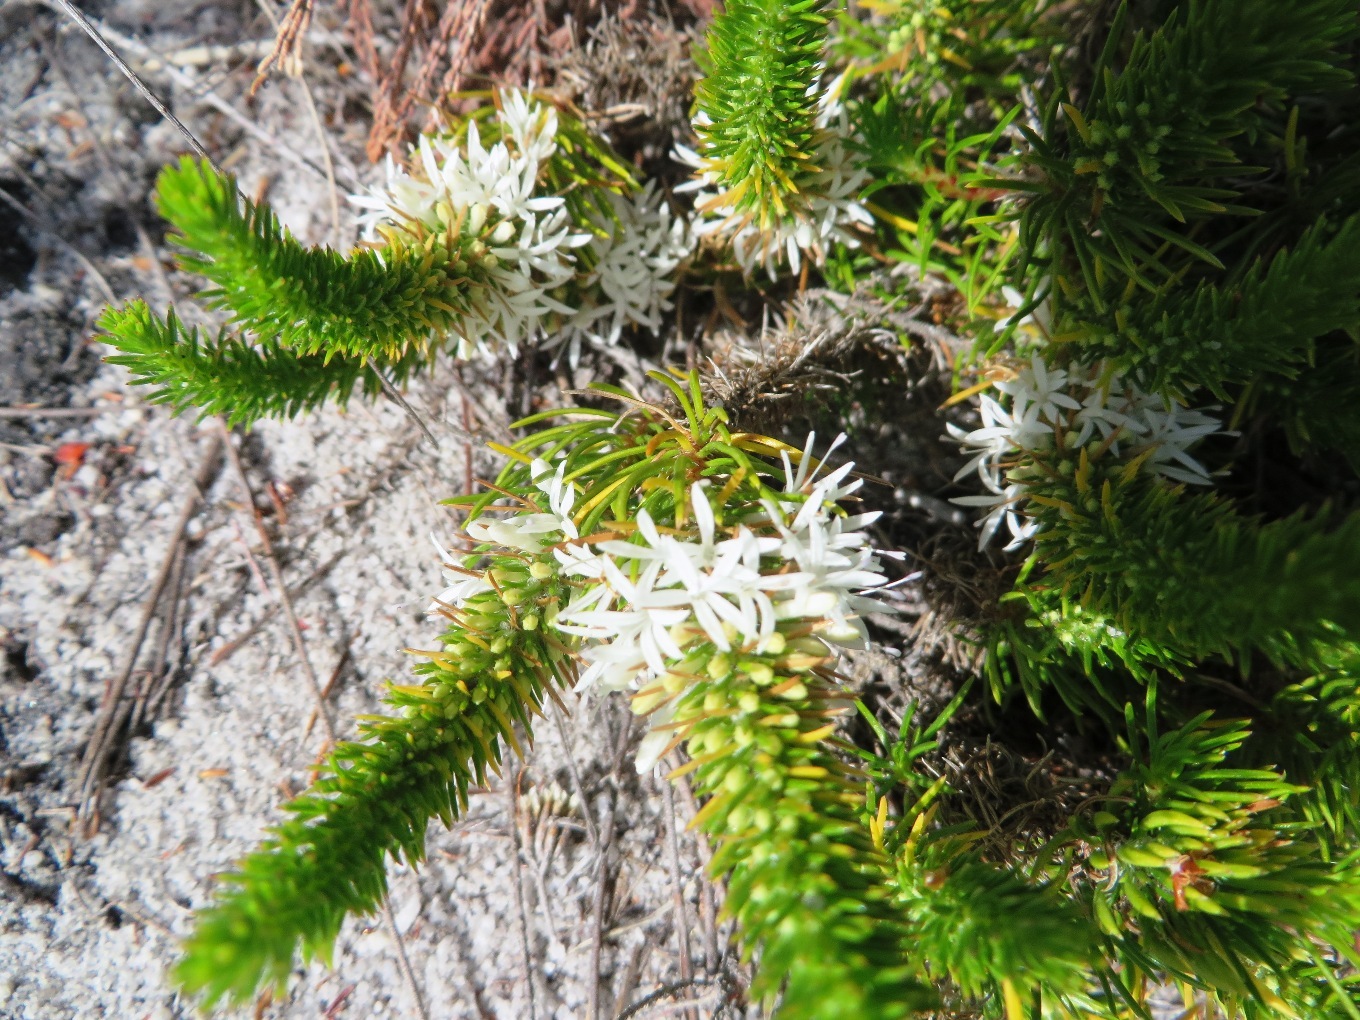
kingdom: Plantae
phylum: Tracheophyta
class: Magnoliopsida
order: Asterales
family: Campanulaceae
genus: Merciera
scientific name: Merciera leptoloba
